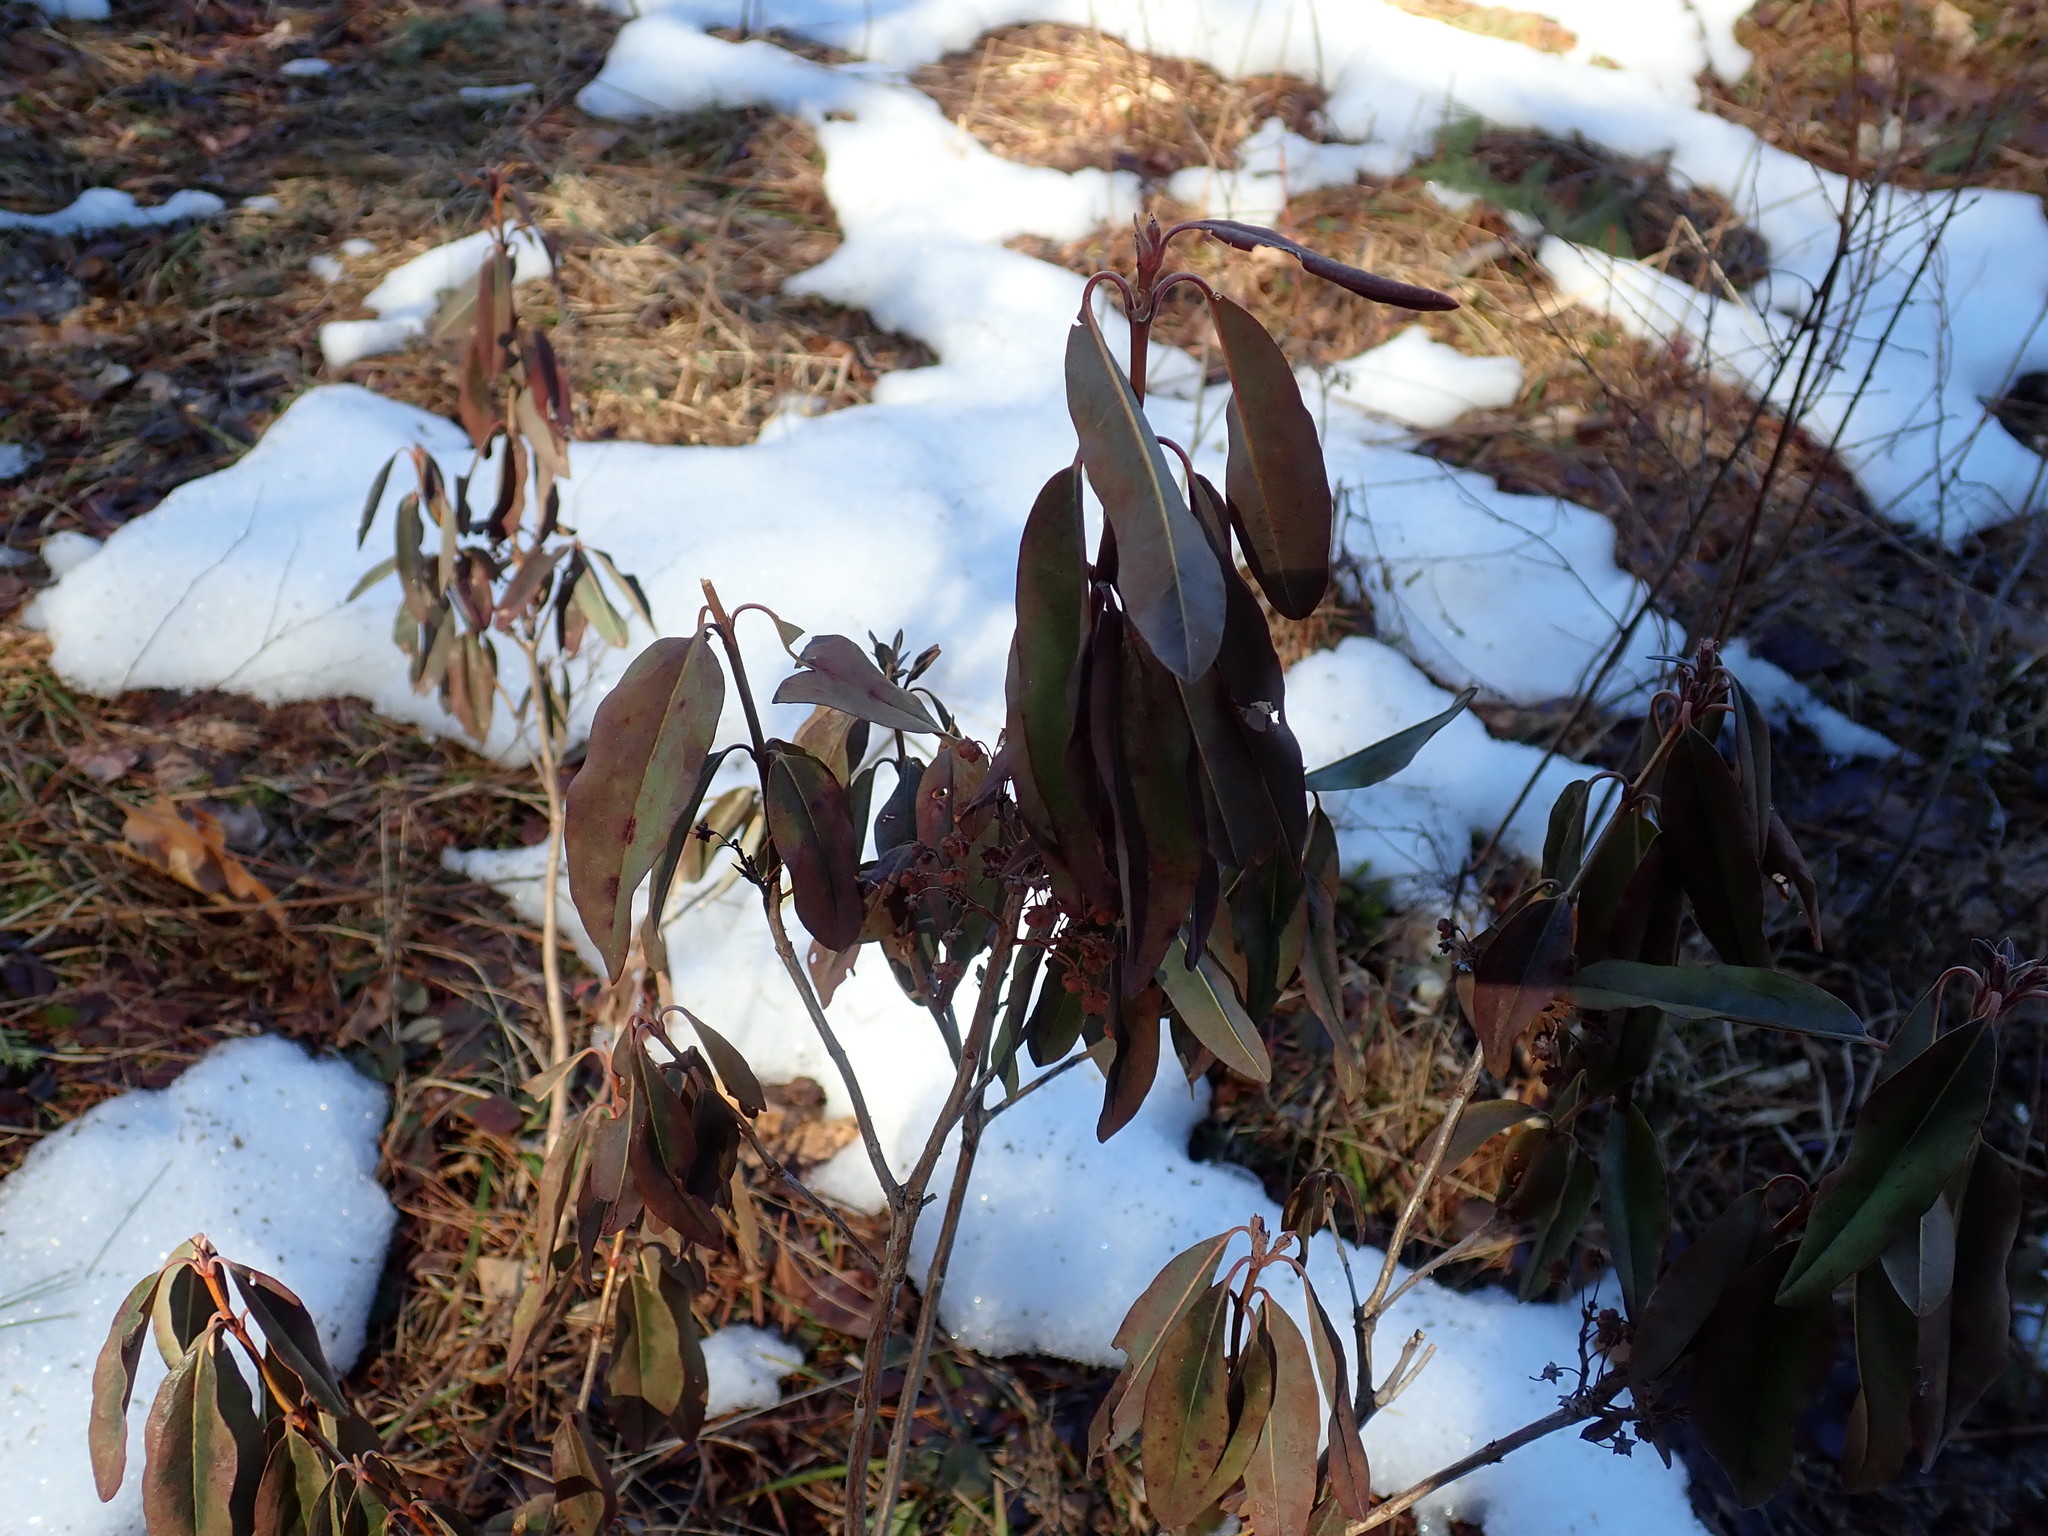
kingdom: Plantae
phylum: Tracheophyta
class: Magnoliopsida
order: Ericales
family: Ericaceae
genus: Kalmia
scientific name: Kalmia angustifolia
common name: Sheep-laurel
